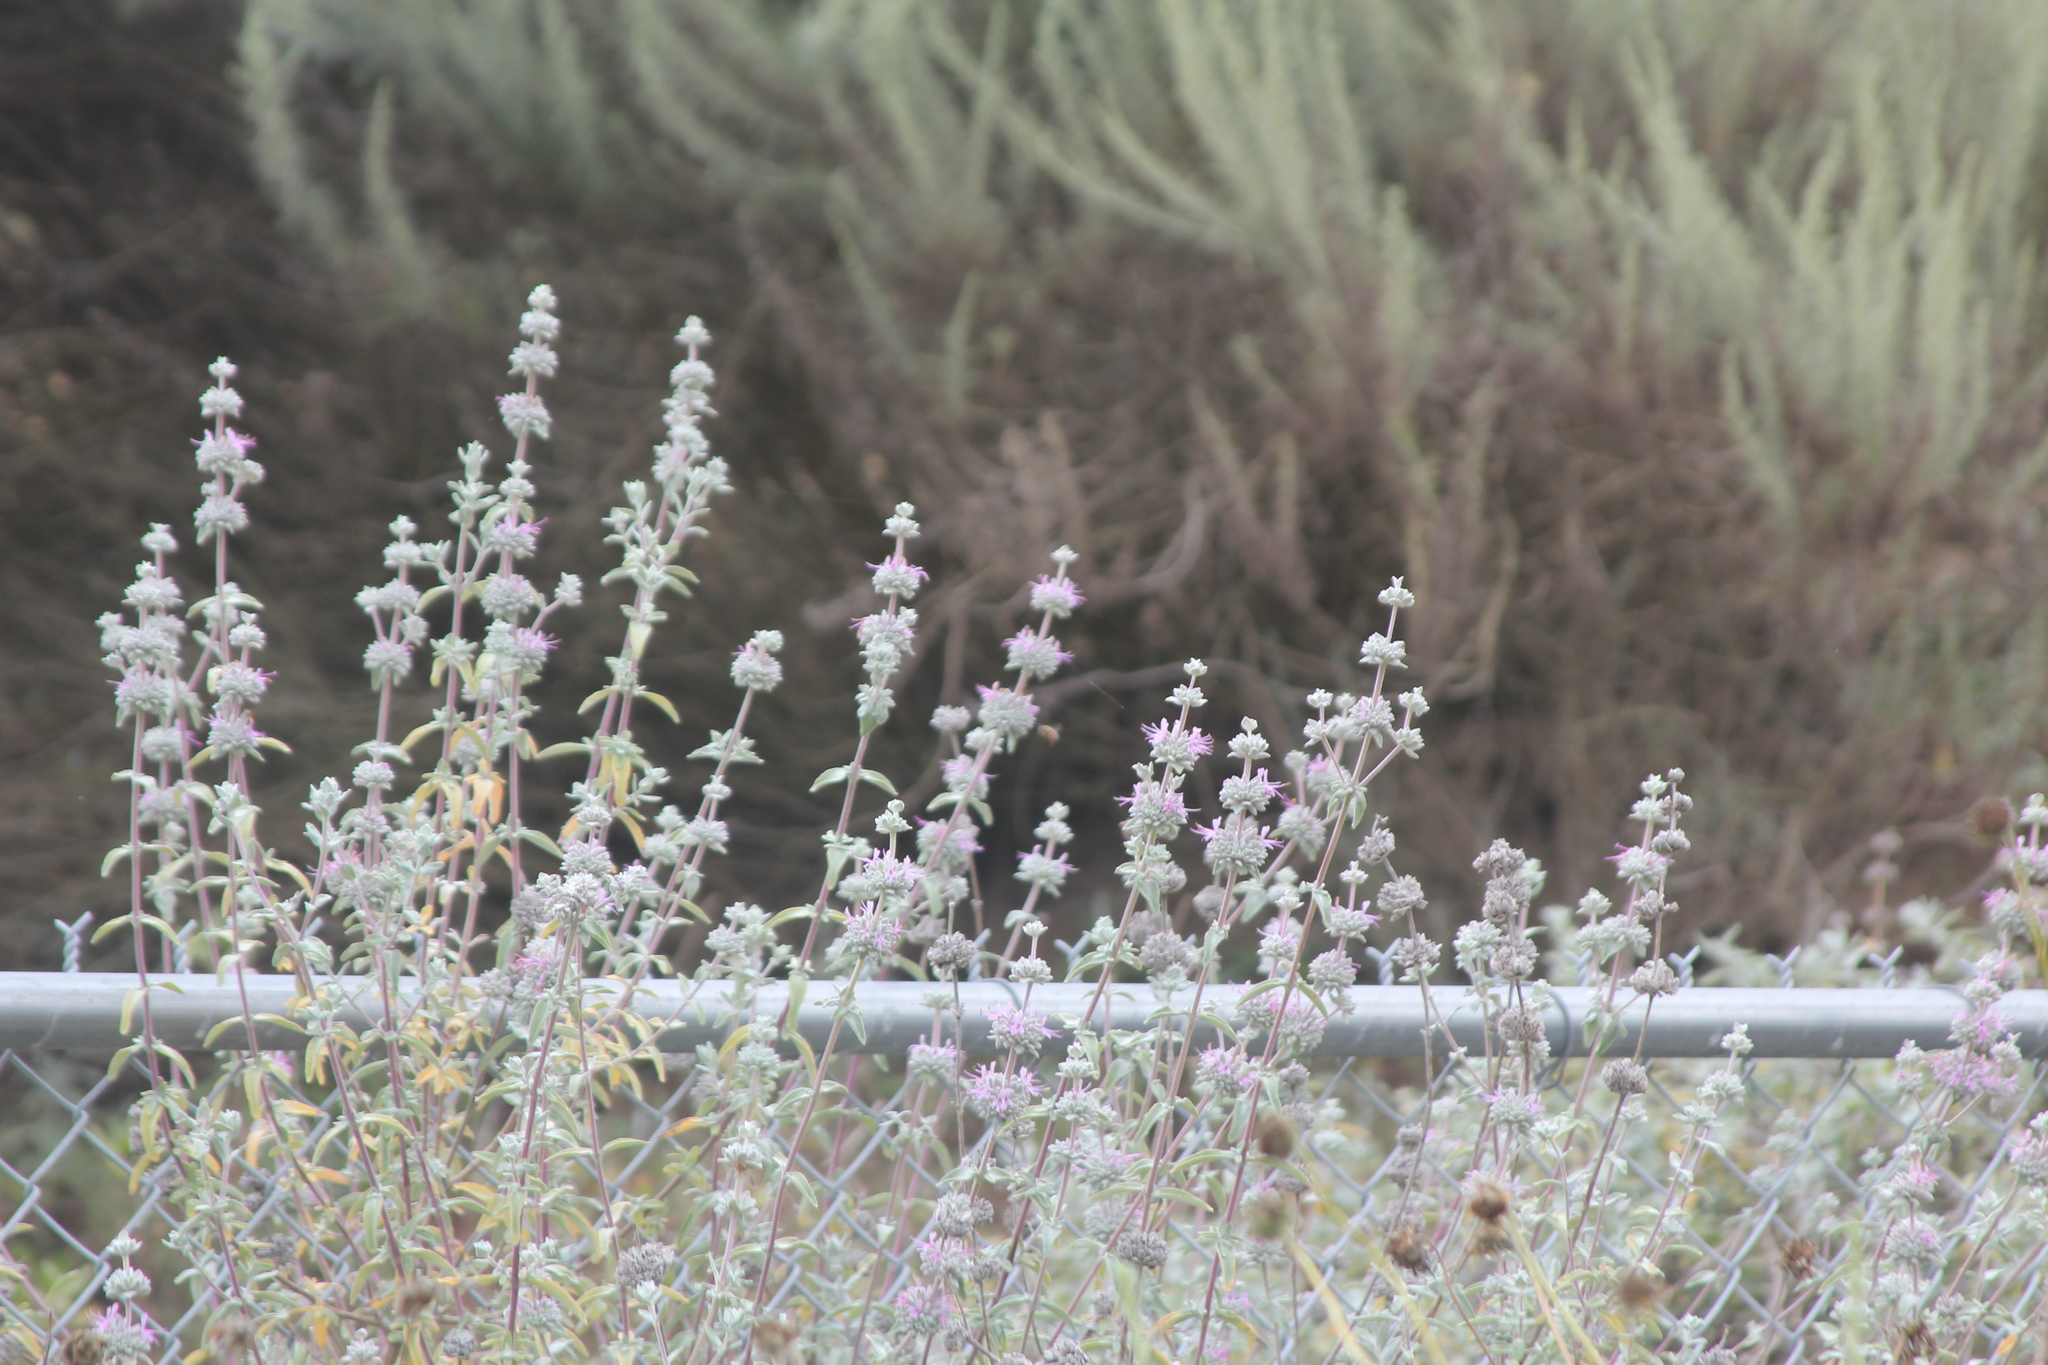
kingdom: Plantae
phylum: Tracheophyta
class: Magnoliopsida
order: Lamiales
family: Lamiaceae
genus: Salvia
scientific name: Salvia leucophylla
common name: Purple sage
